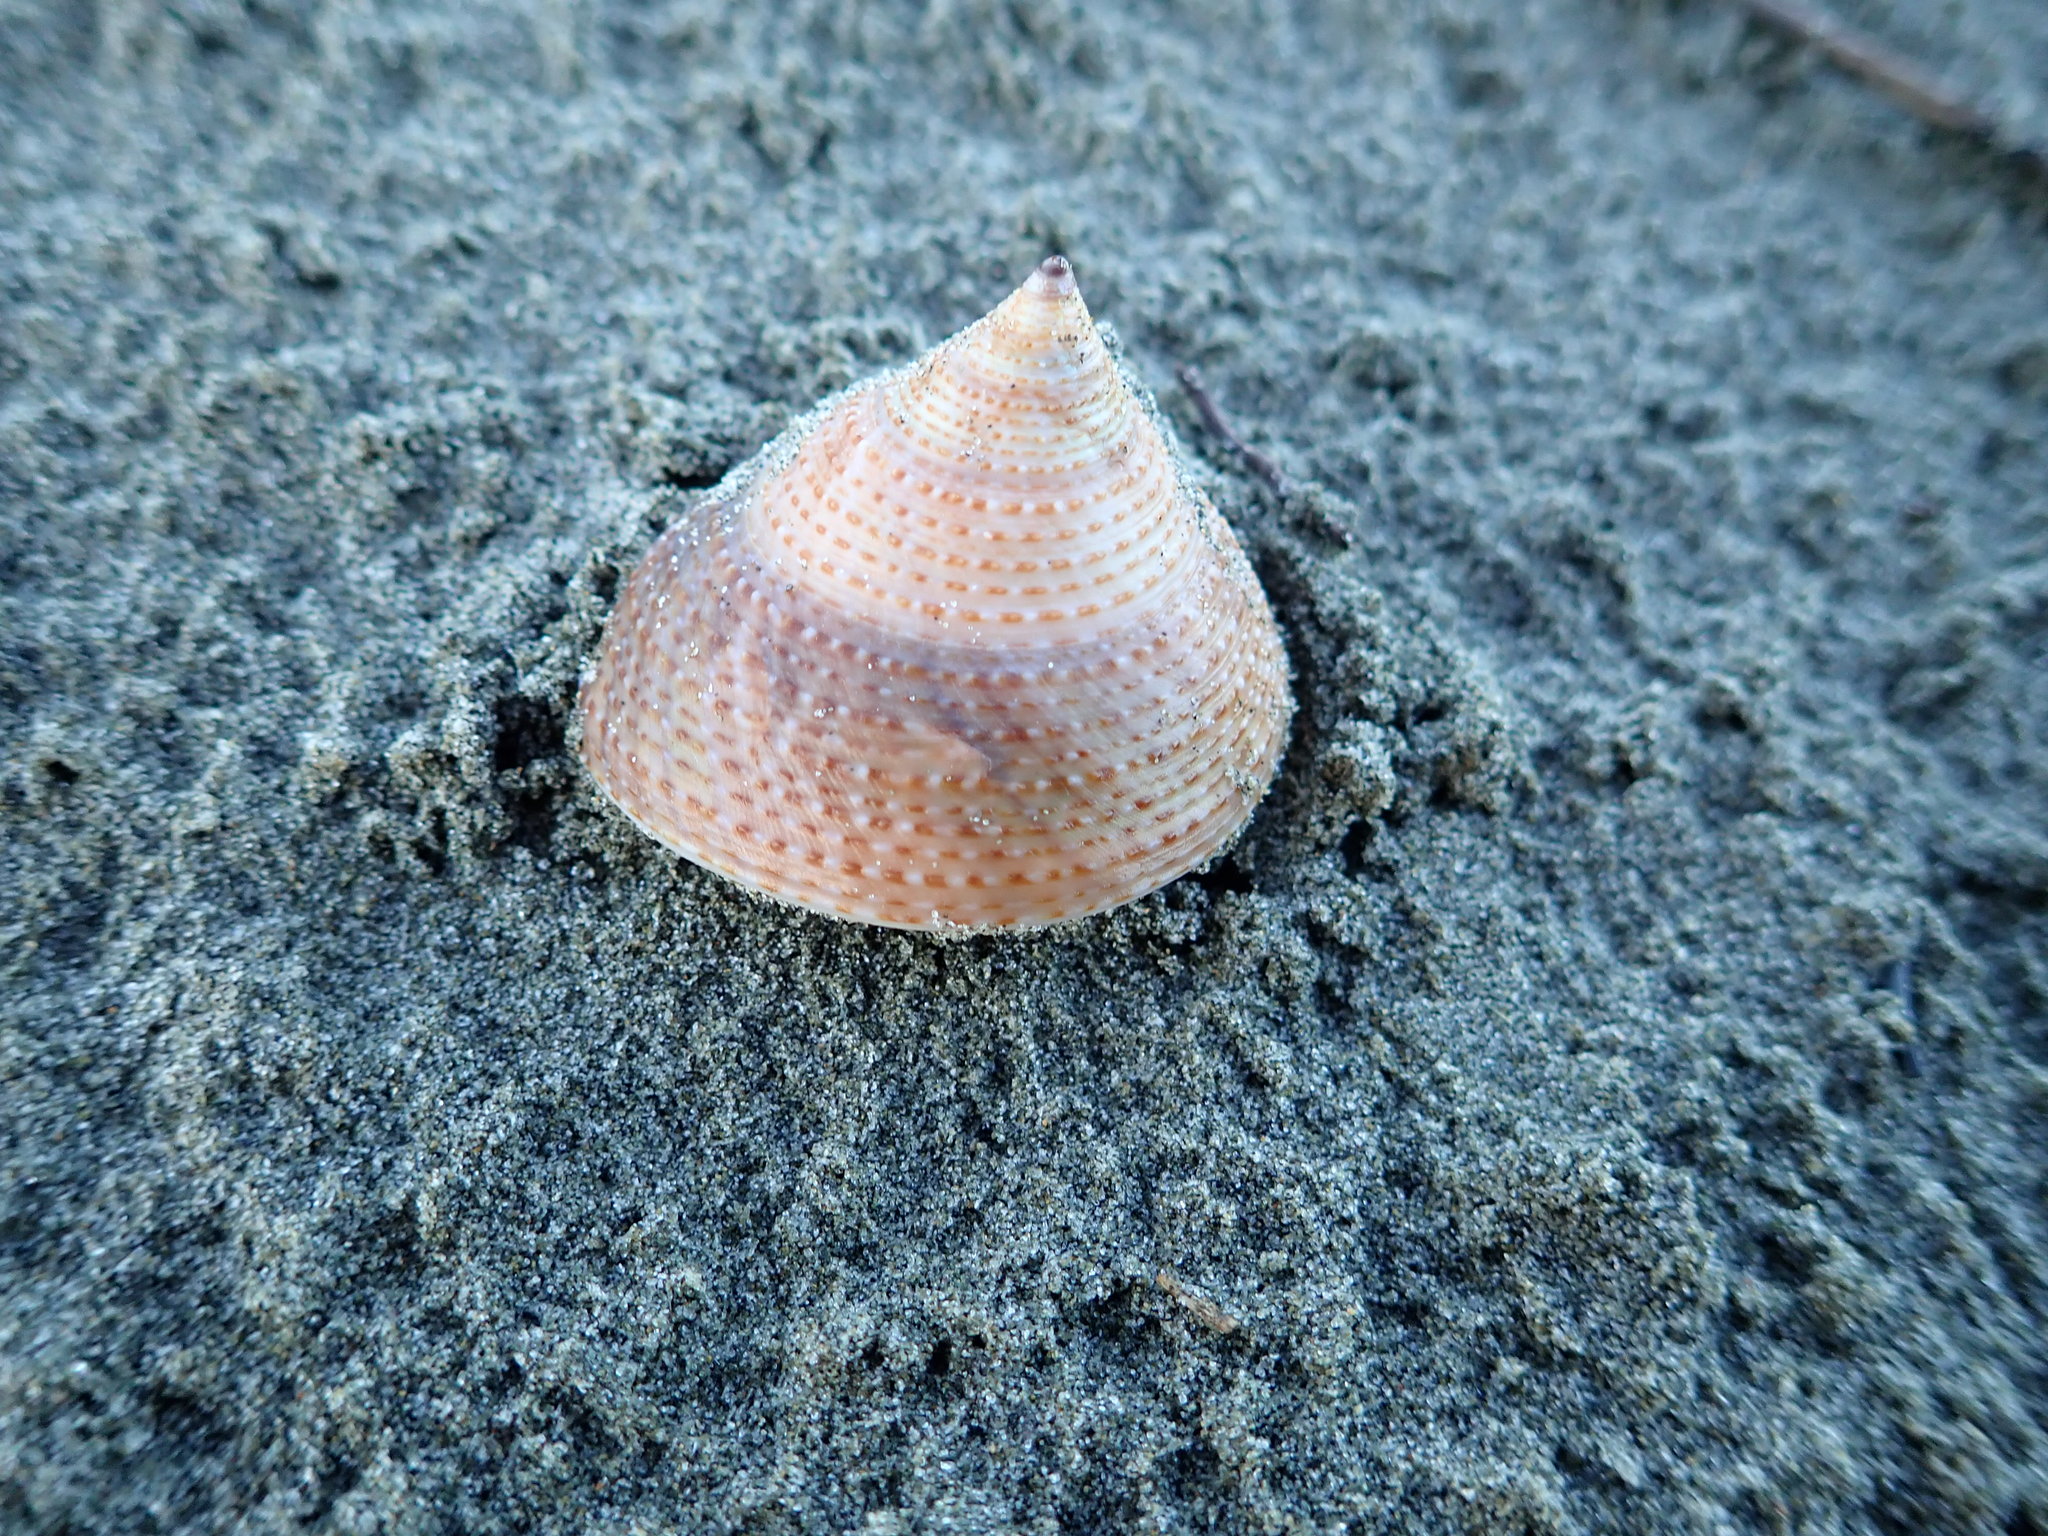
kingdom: Animalia
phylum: Mollusca
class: Gastropoda
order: Trochida
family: Calliostomatidae
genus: Maurea
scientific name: Maurea selecta
